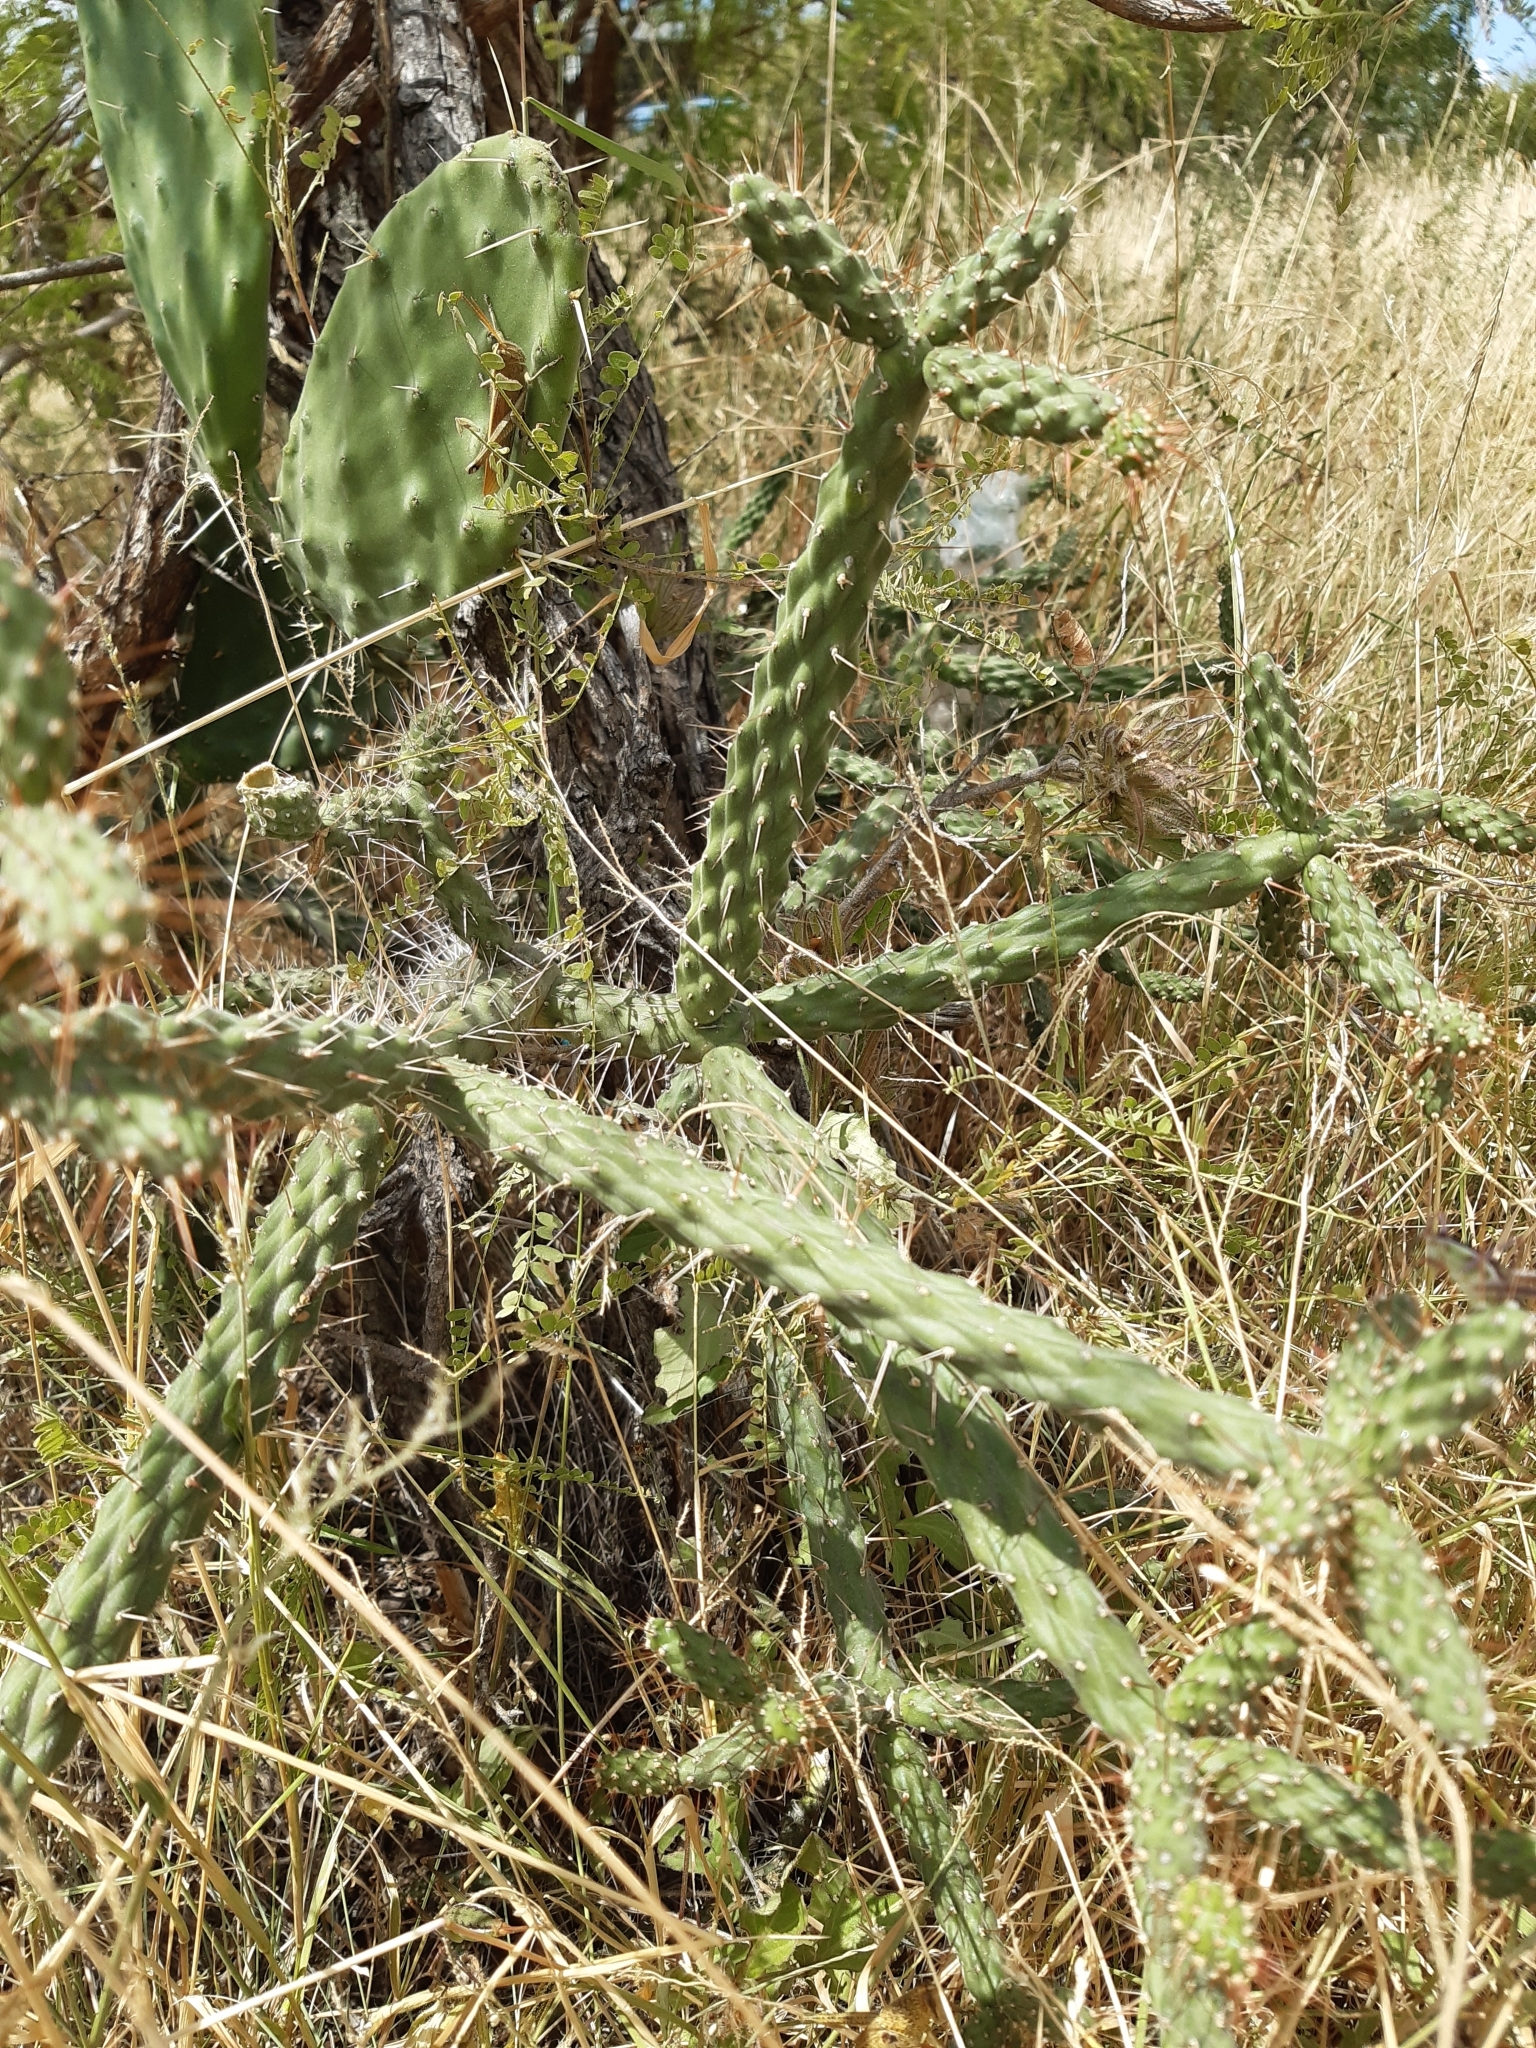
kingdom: Plantae
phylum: Tracheophyta
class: Magnoliopsida
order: Caryophyllales
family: Cactaceae
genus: Opuntia
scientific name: Opuntia pubescens
